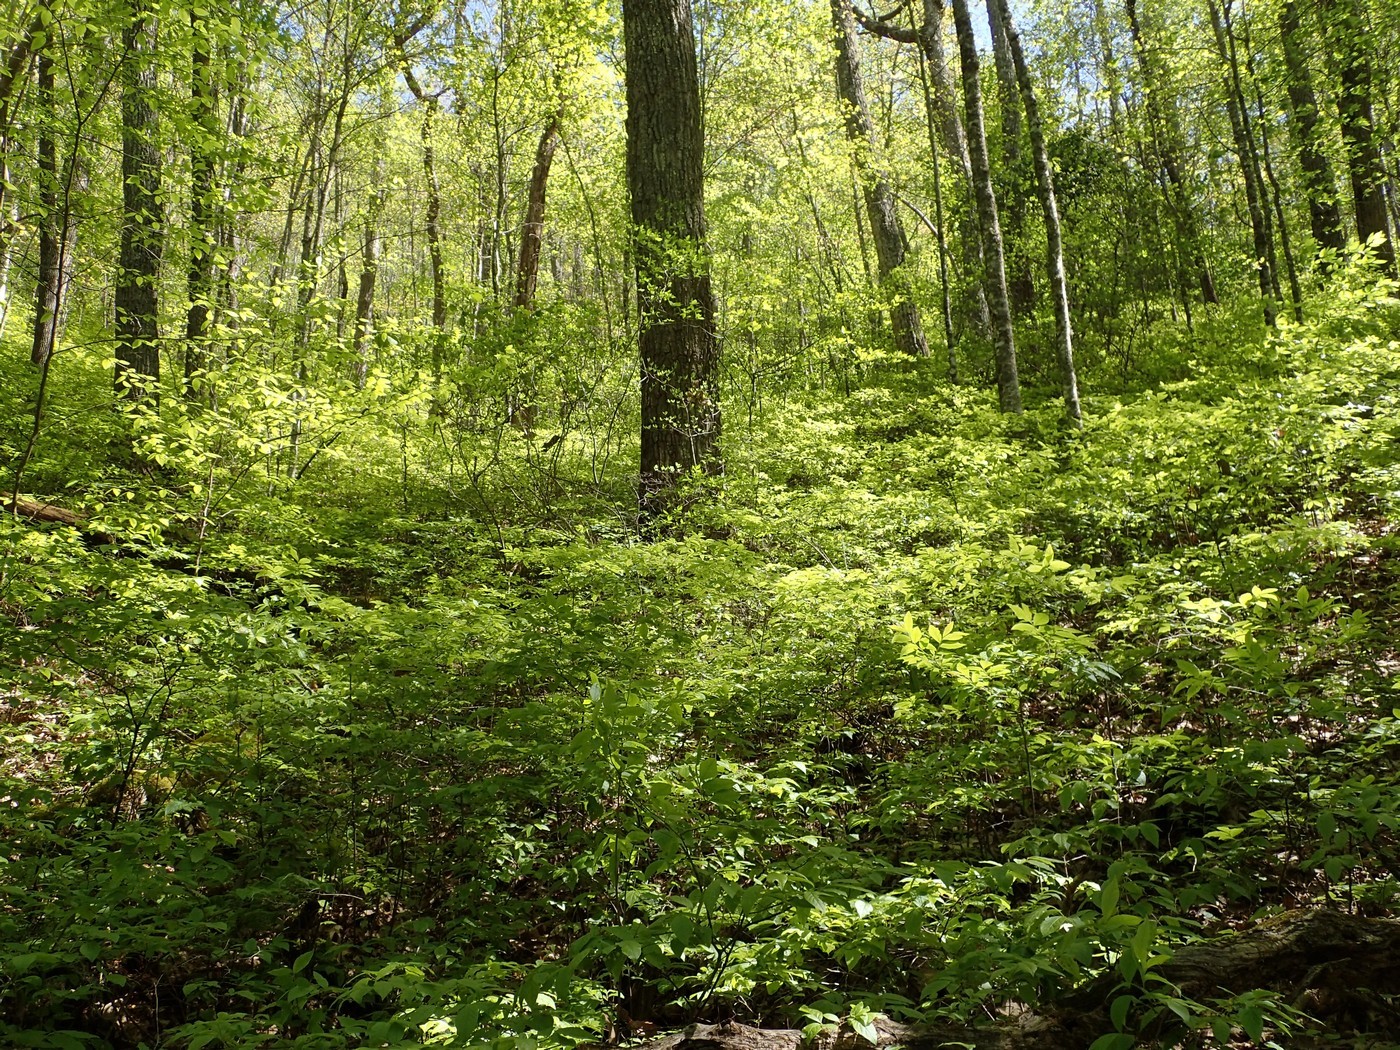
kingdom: Plantae
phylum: Tracheophyta
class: Magnoliopsida
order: Ericales
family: Ericaceae
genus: Gaylussacia
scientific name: Gaylussacia ursina
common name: Bear huckleberry
